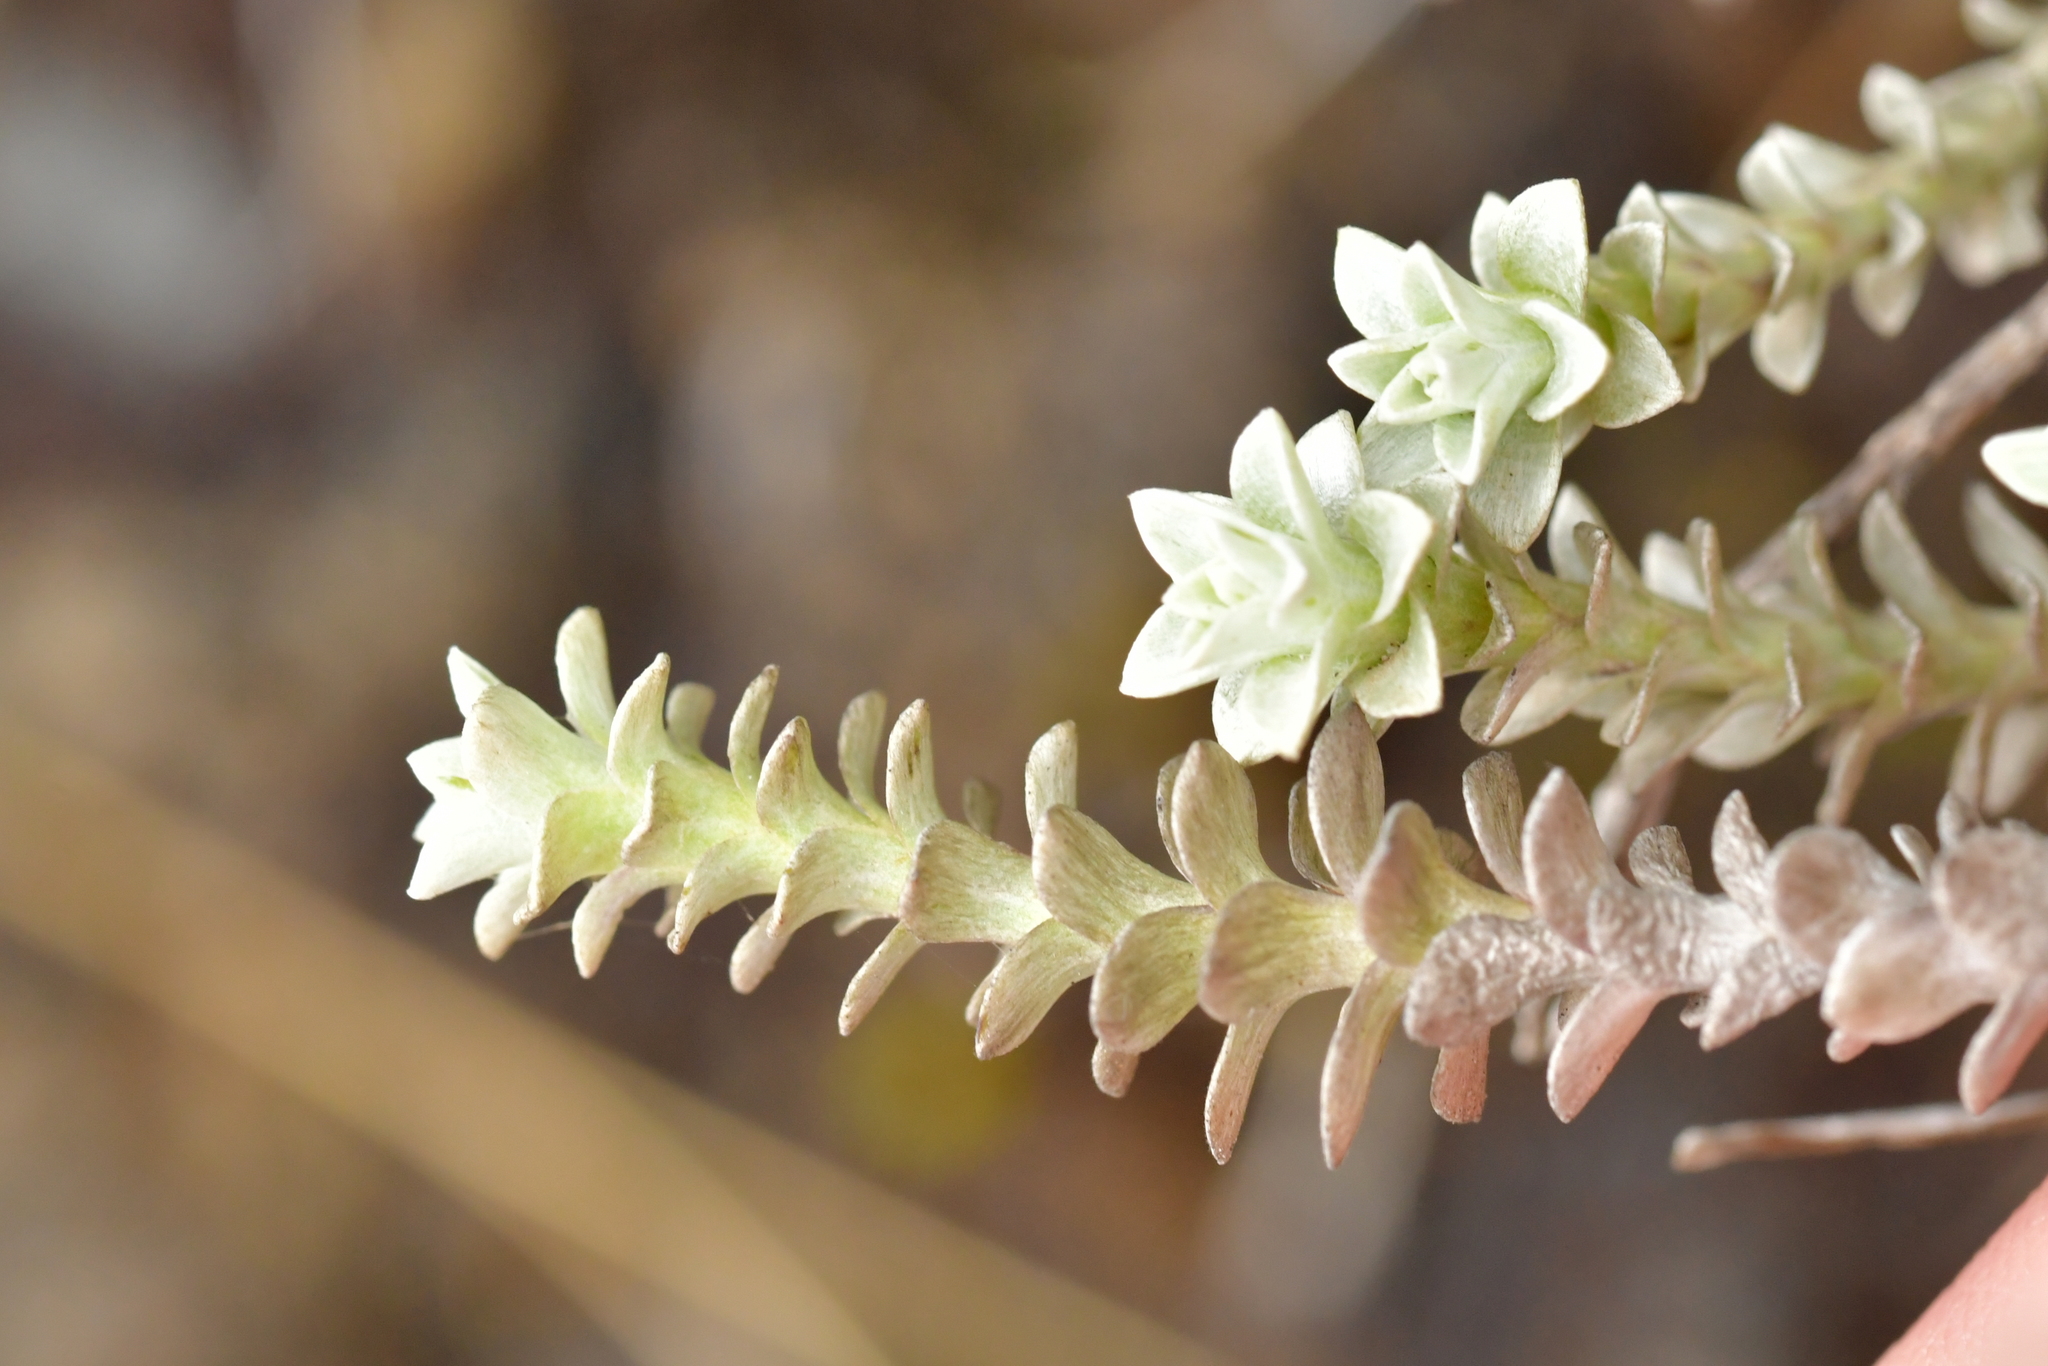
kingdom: Plantae
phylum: Tracheophyta
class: Magnoliopsida
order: Asterales
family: Asteraceae
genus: Leucogenes
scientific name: Leucogenes grandiceps
